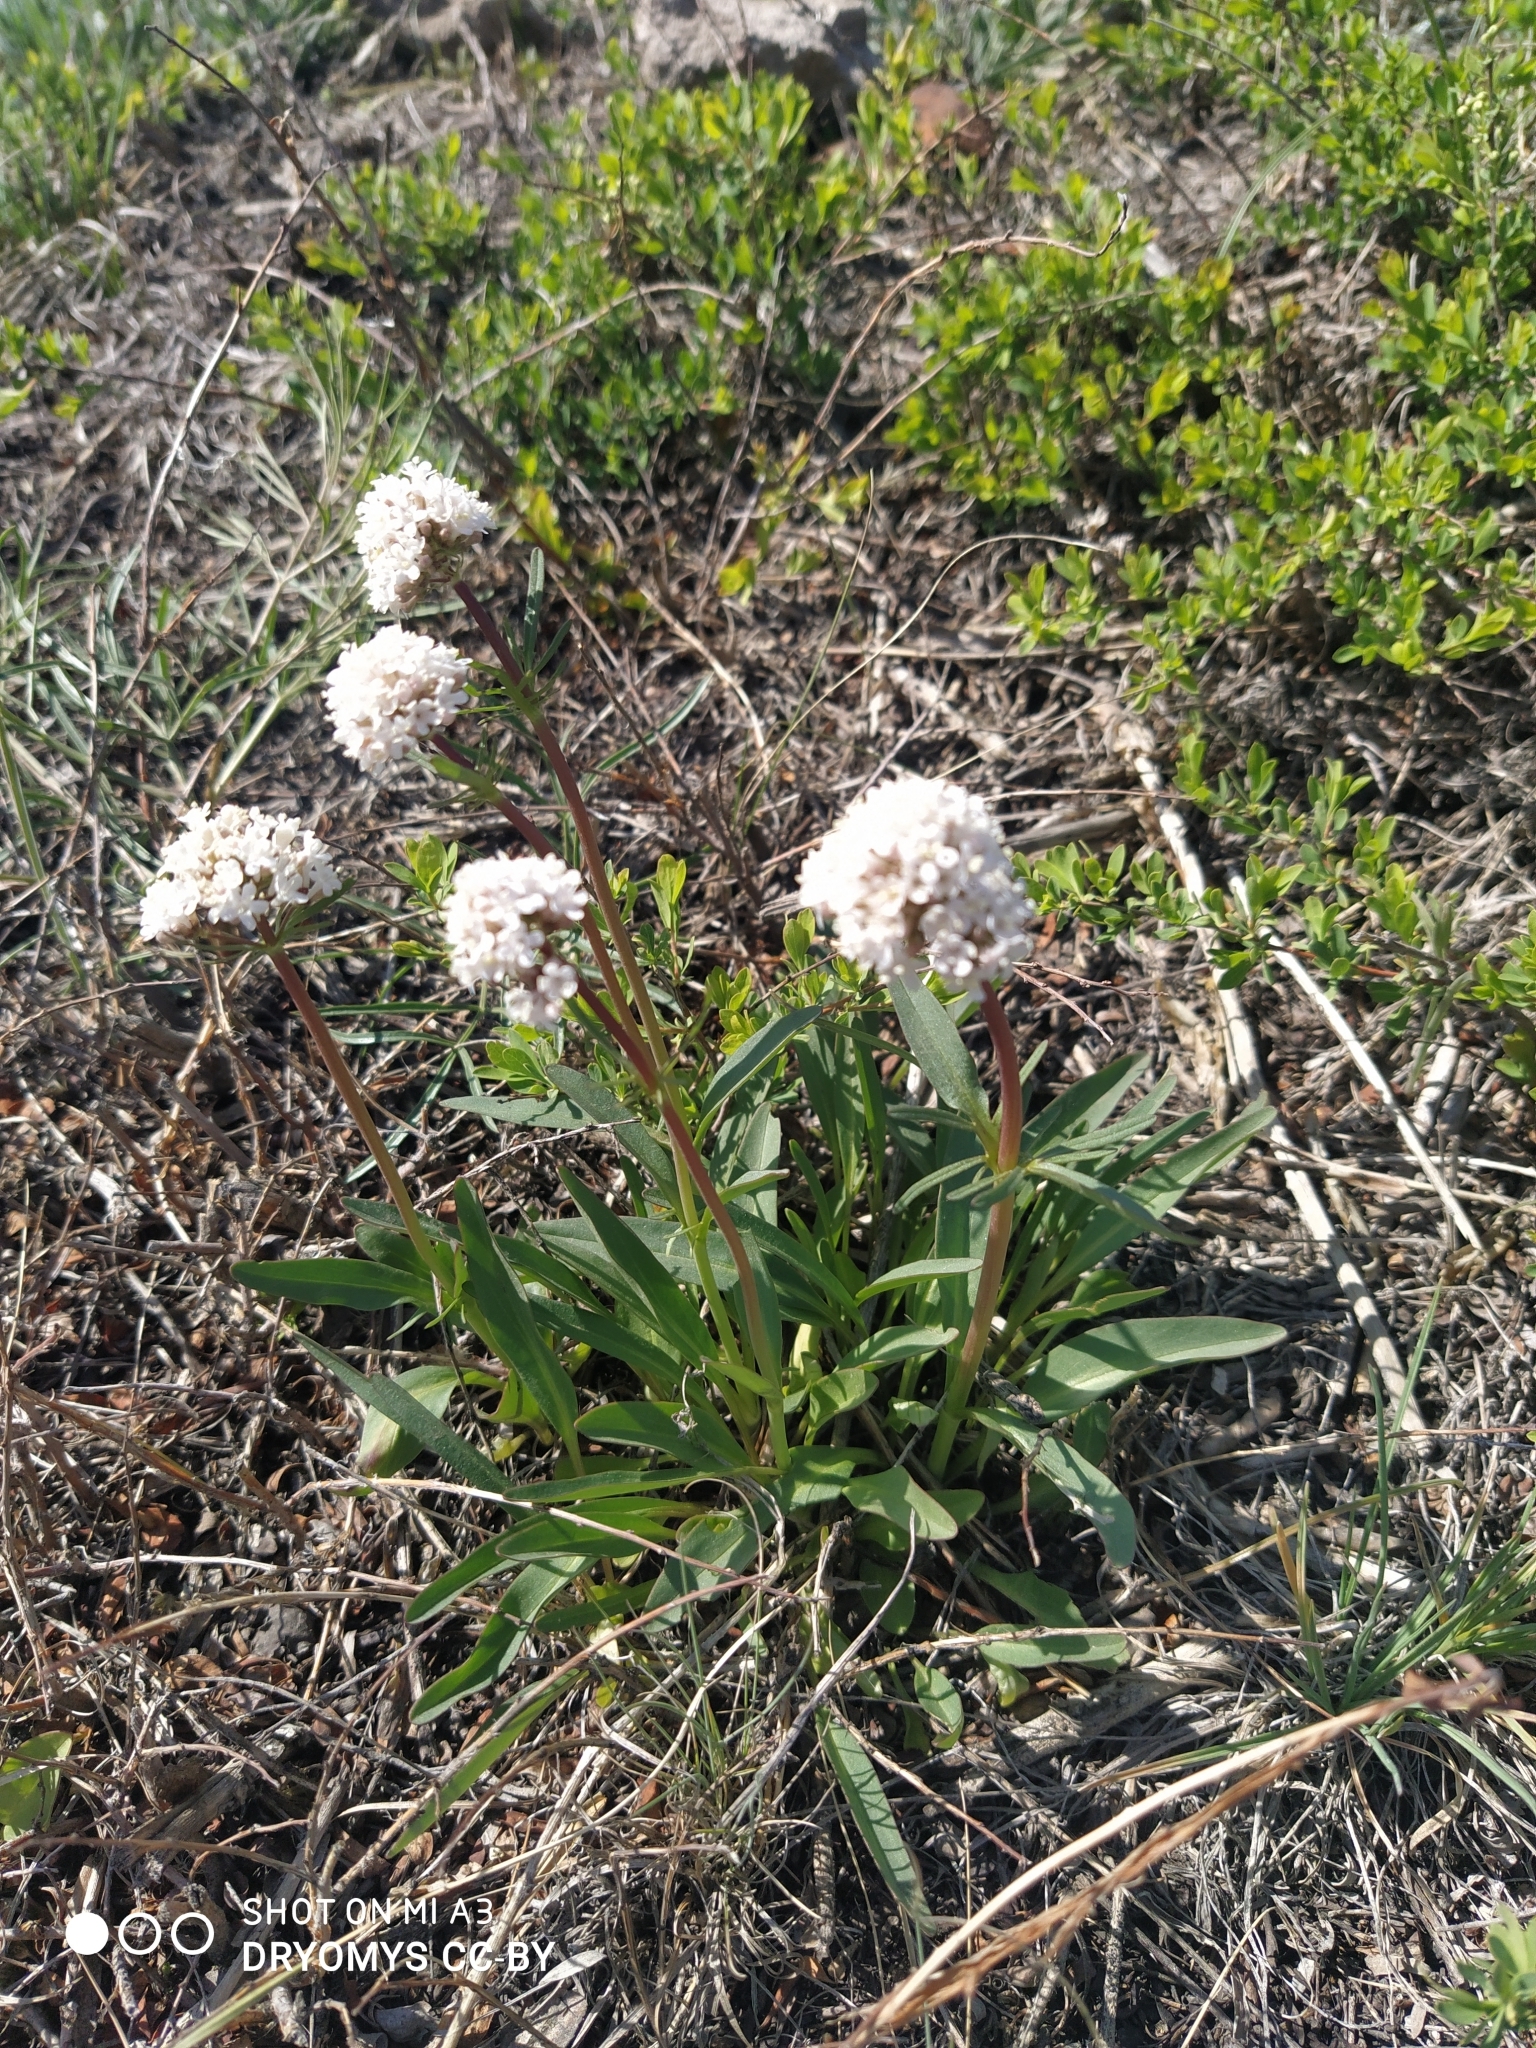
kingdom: Plantae
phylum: Tracheophyta
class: Magnoliopsida
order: Dipsacales
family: Caprifoliaceae
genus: Valeriana
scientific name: Valeriana tuberosa
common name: Tuberous valerian
